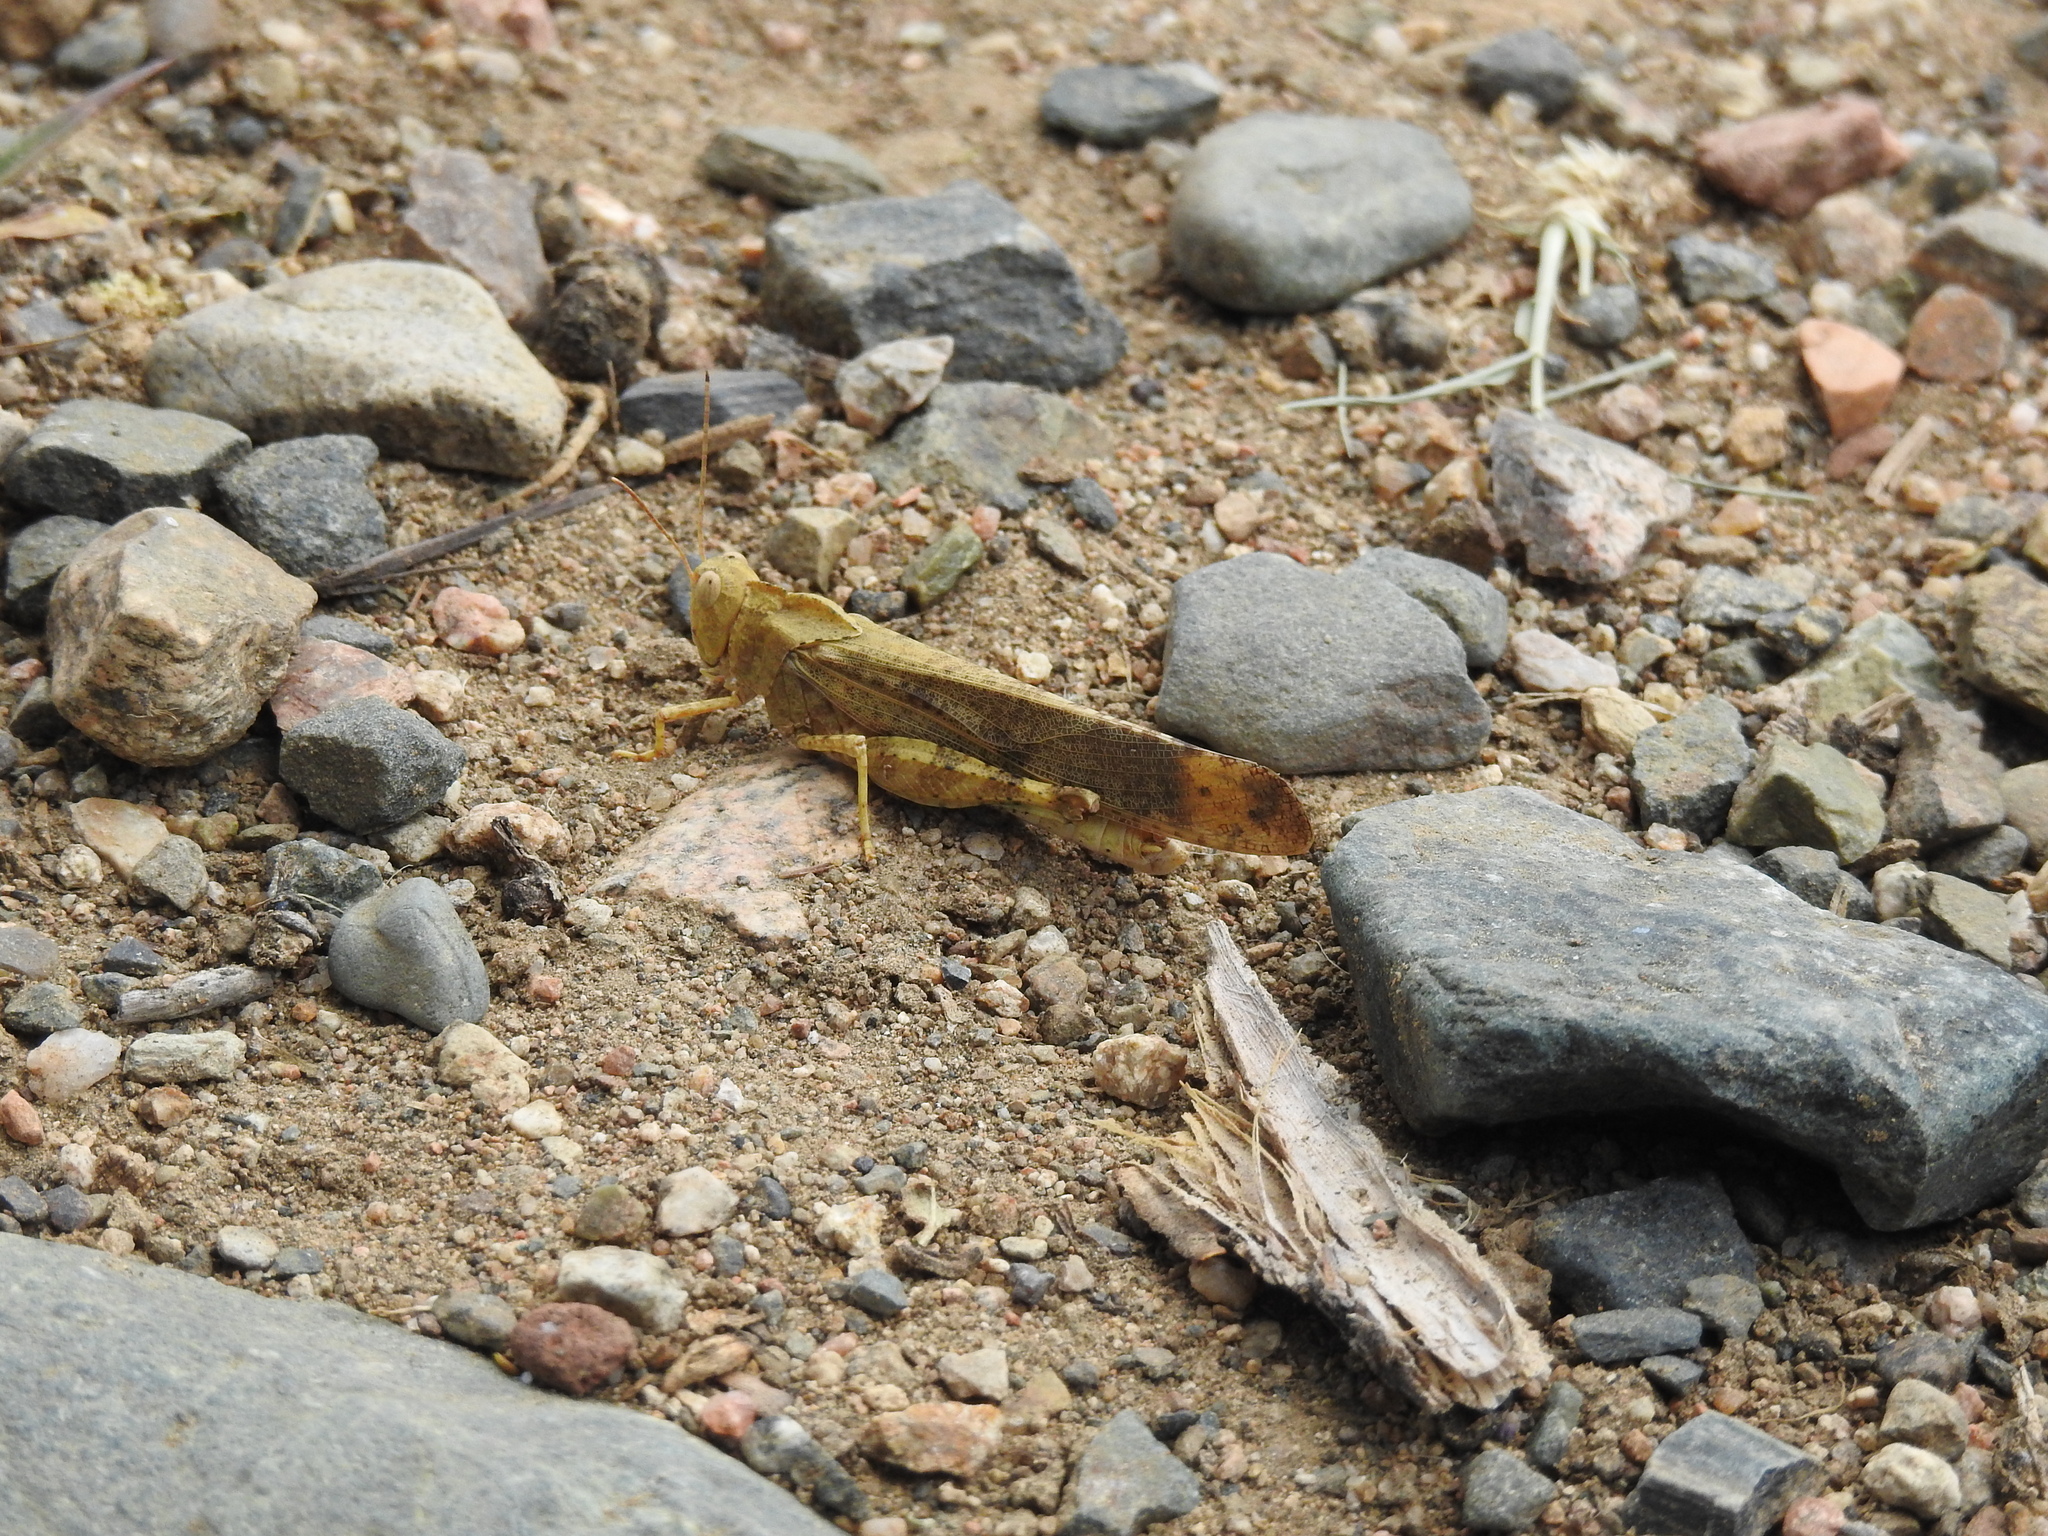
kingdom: Animalia
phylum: Arthropoda
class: Insecta
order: Orthoptera
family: Acrididae
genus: Dissosteira
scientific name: Dissosteira carolina
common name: Carolina grasshopper
